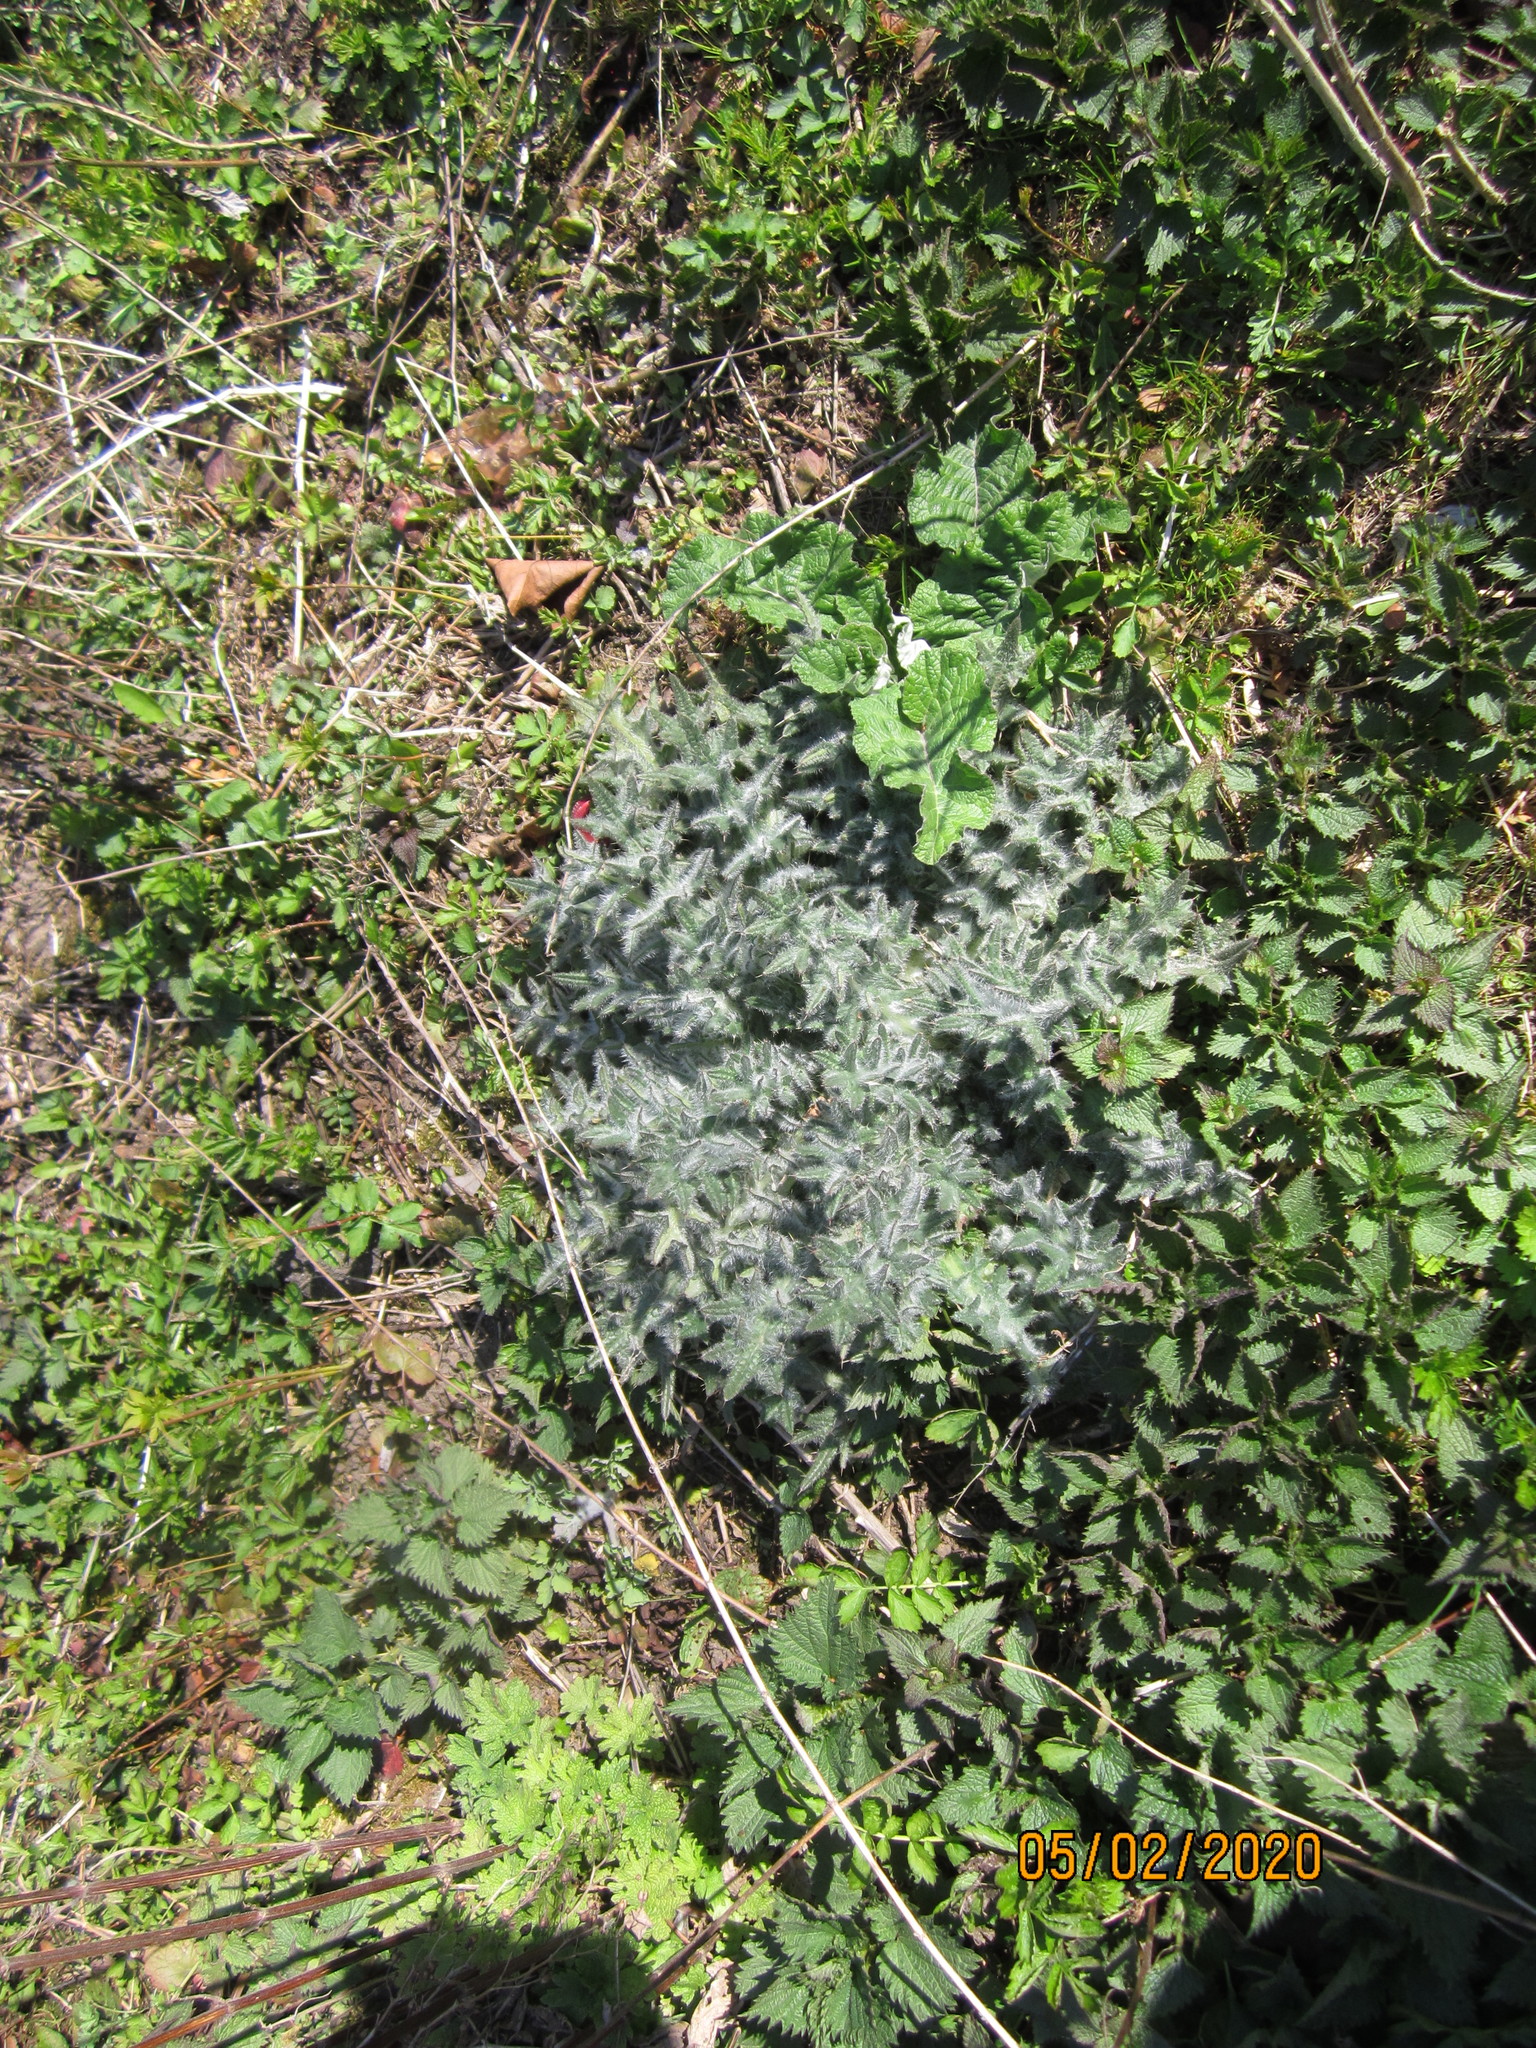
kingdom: Plantae
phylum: Tracheophyta
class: Magnoliopsida
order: Asterales
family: Asteraceae
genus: Cirsium
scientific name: Cirsium vulgare
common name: Bull thistle
